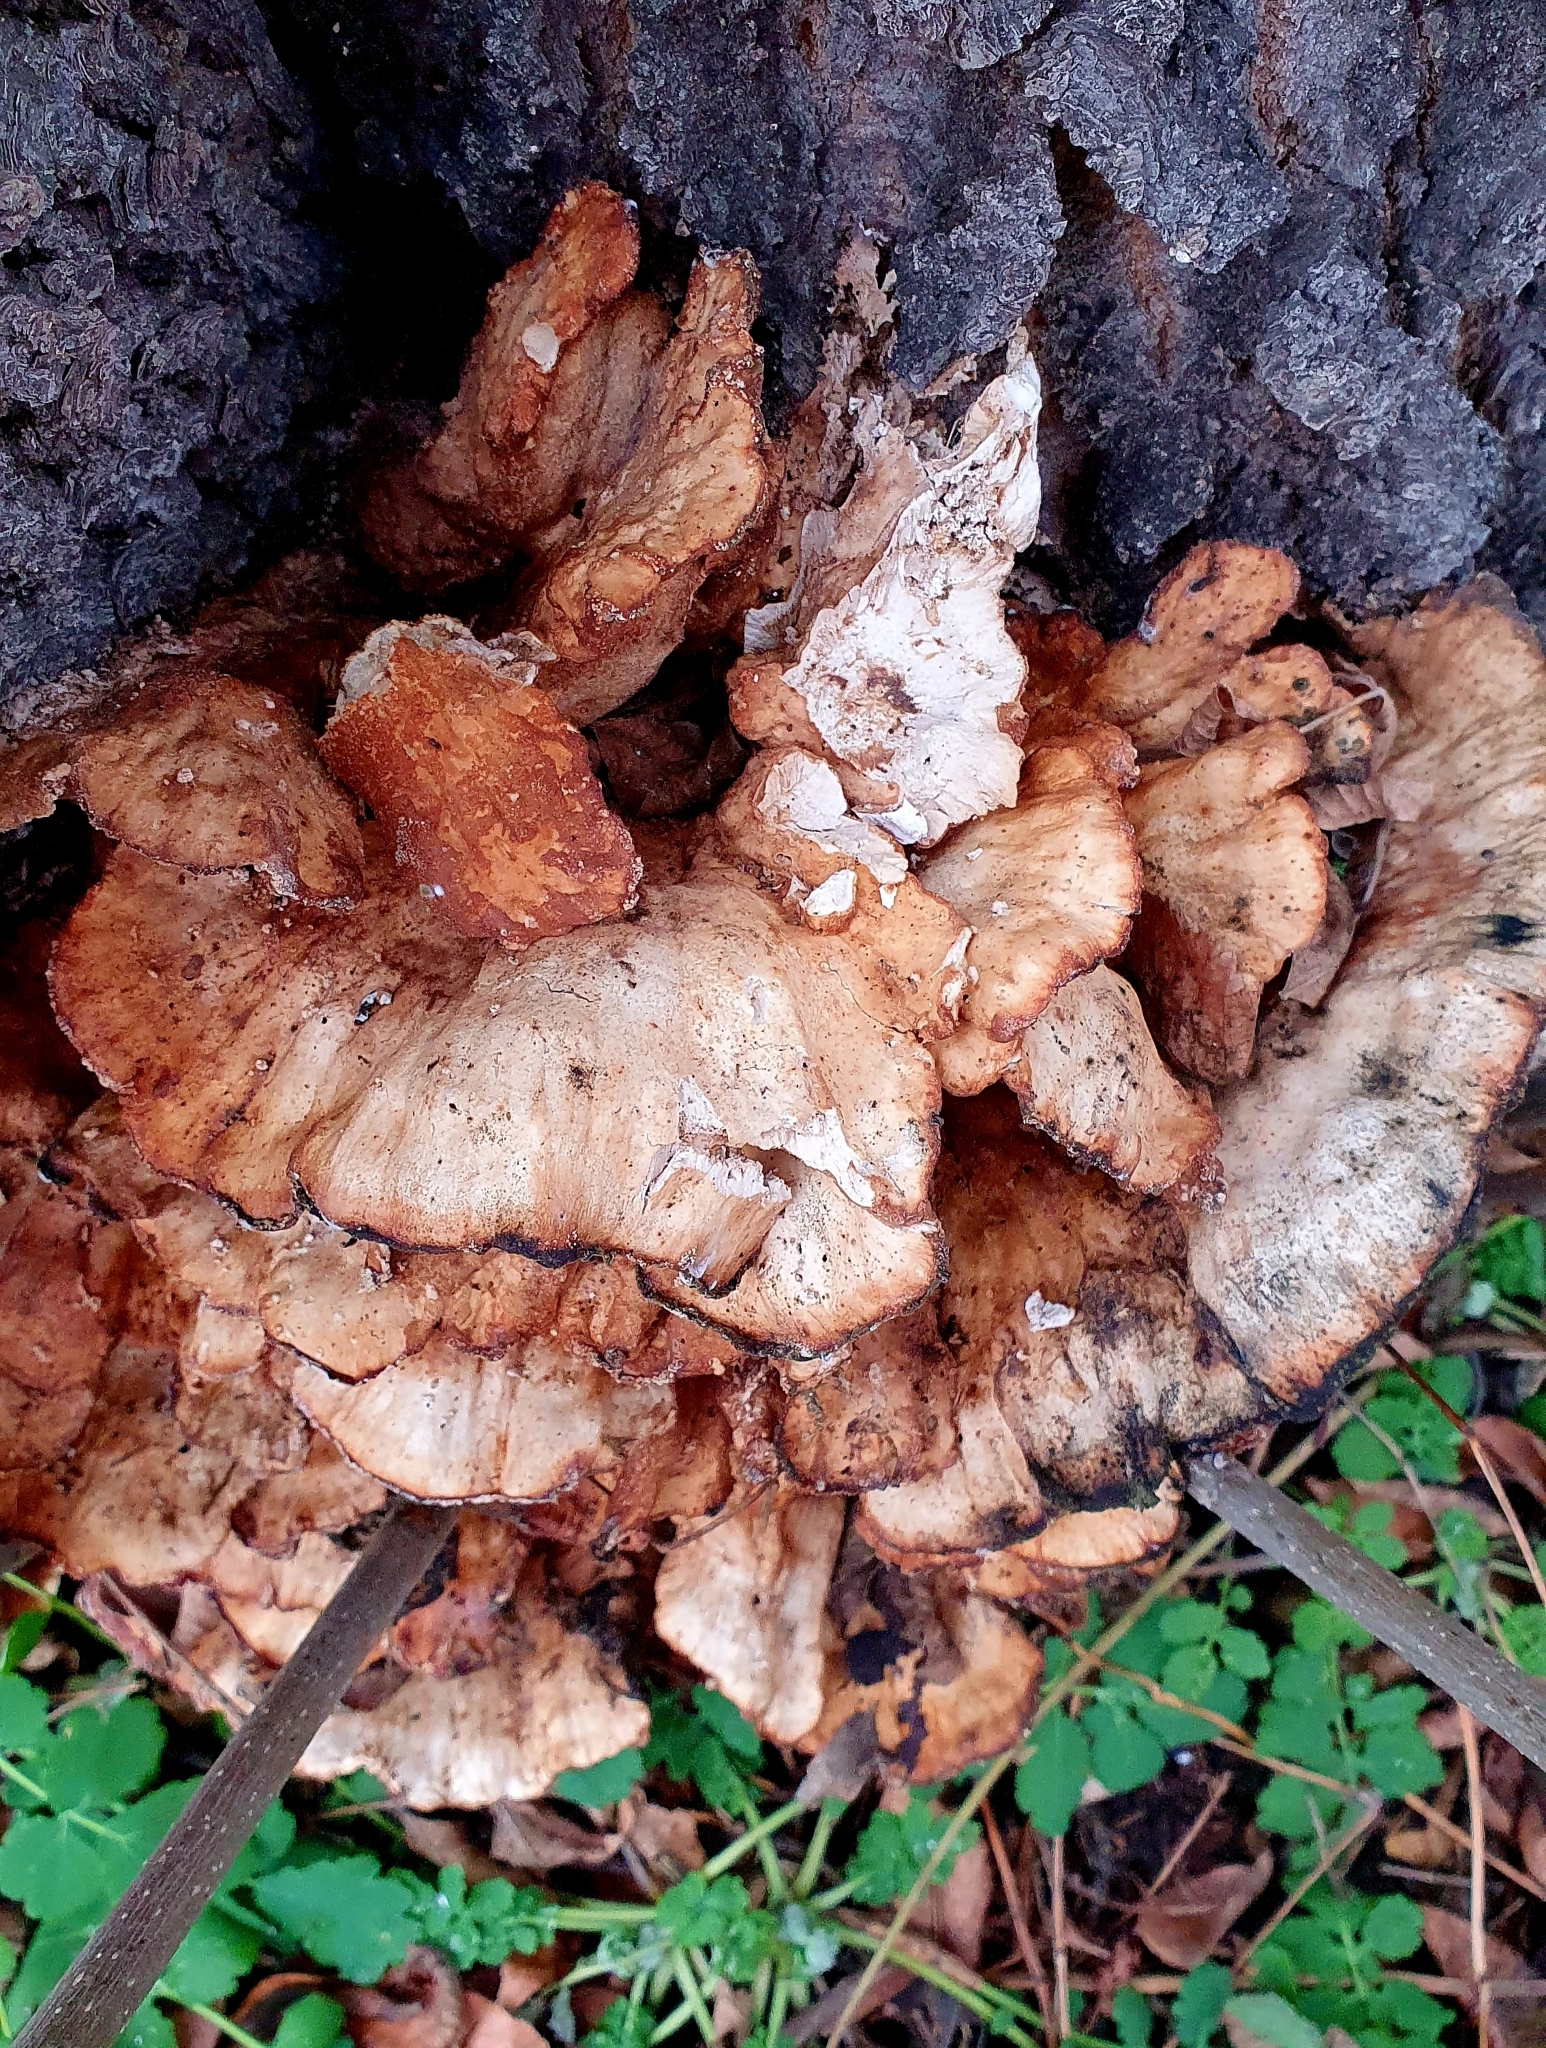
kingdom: Fungi
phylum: Basidiomycota
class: Agaricomycetes
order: Polyporales
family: Laetiporaceae
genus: Laetiporus
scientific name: Laetiporus sulphureus
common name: Chicken of the woods
